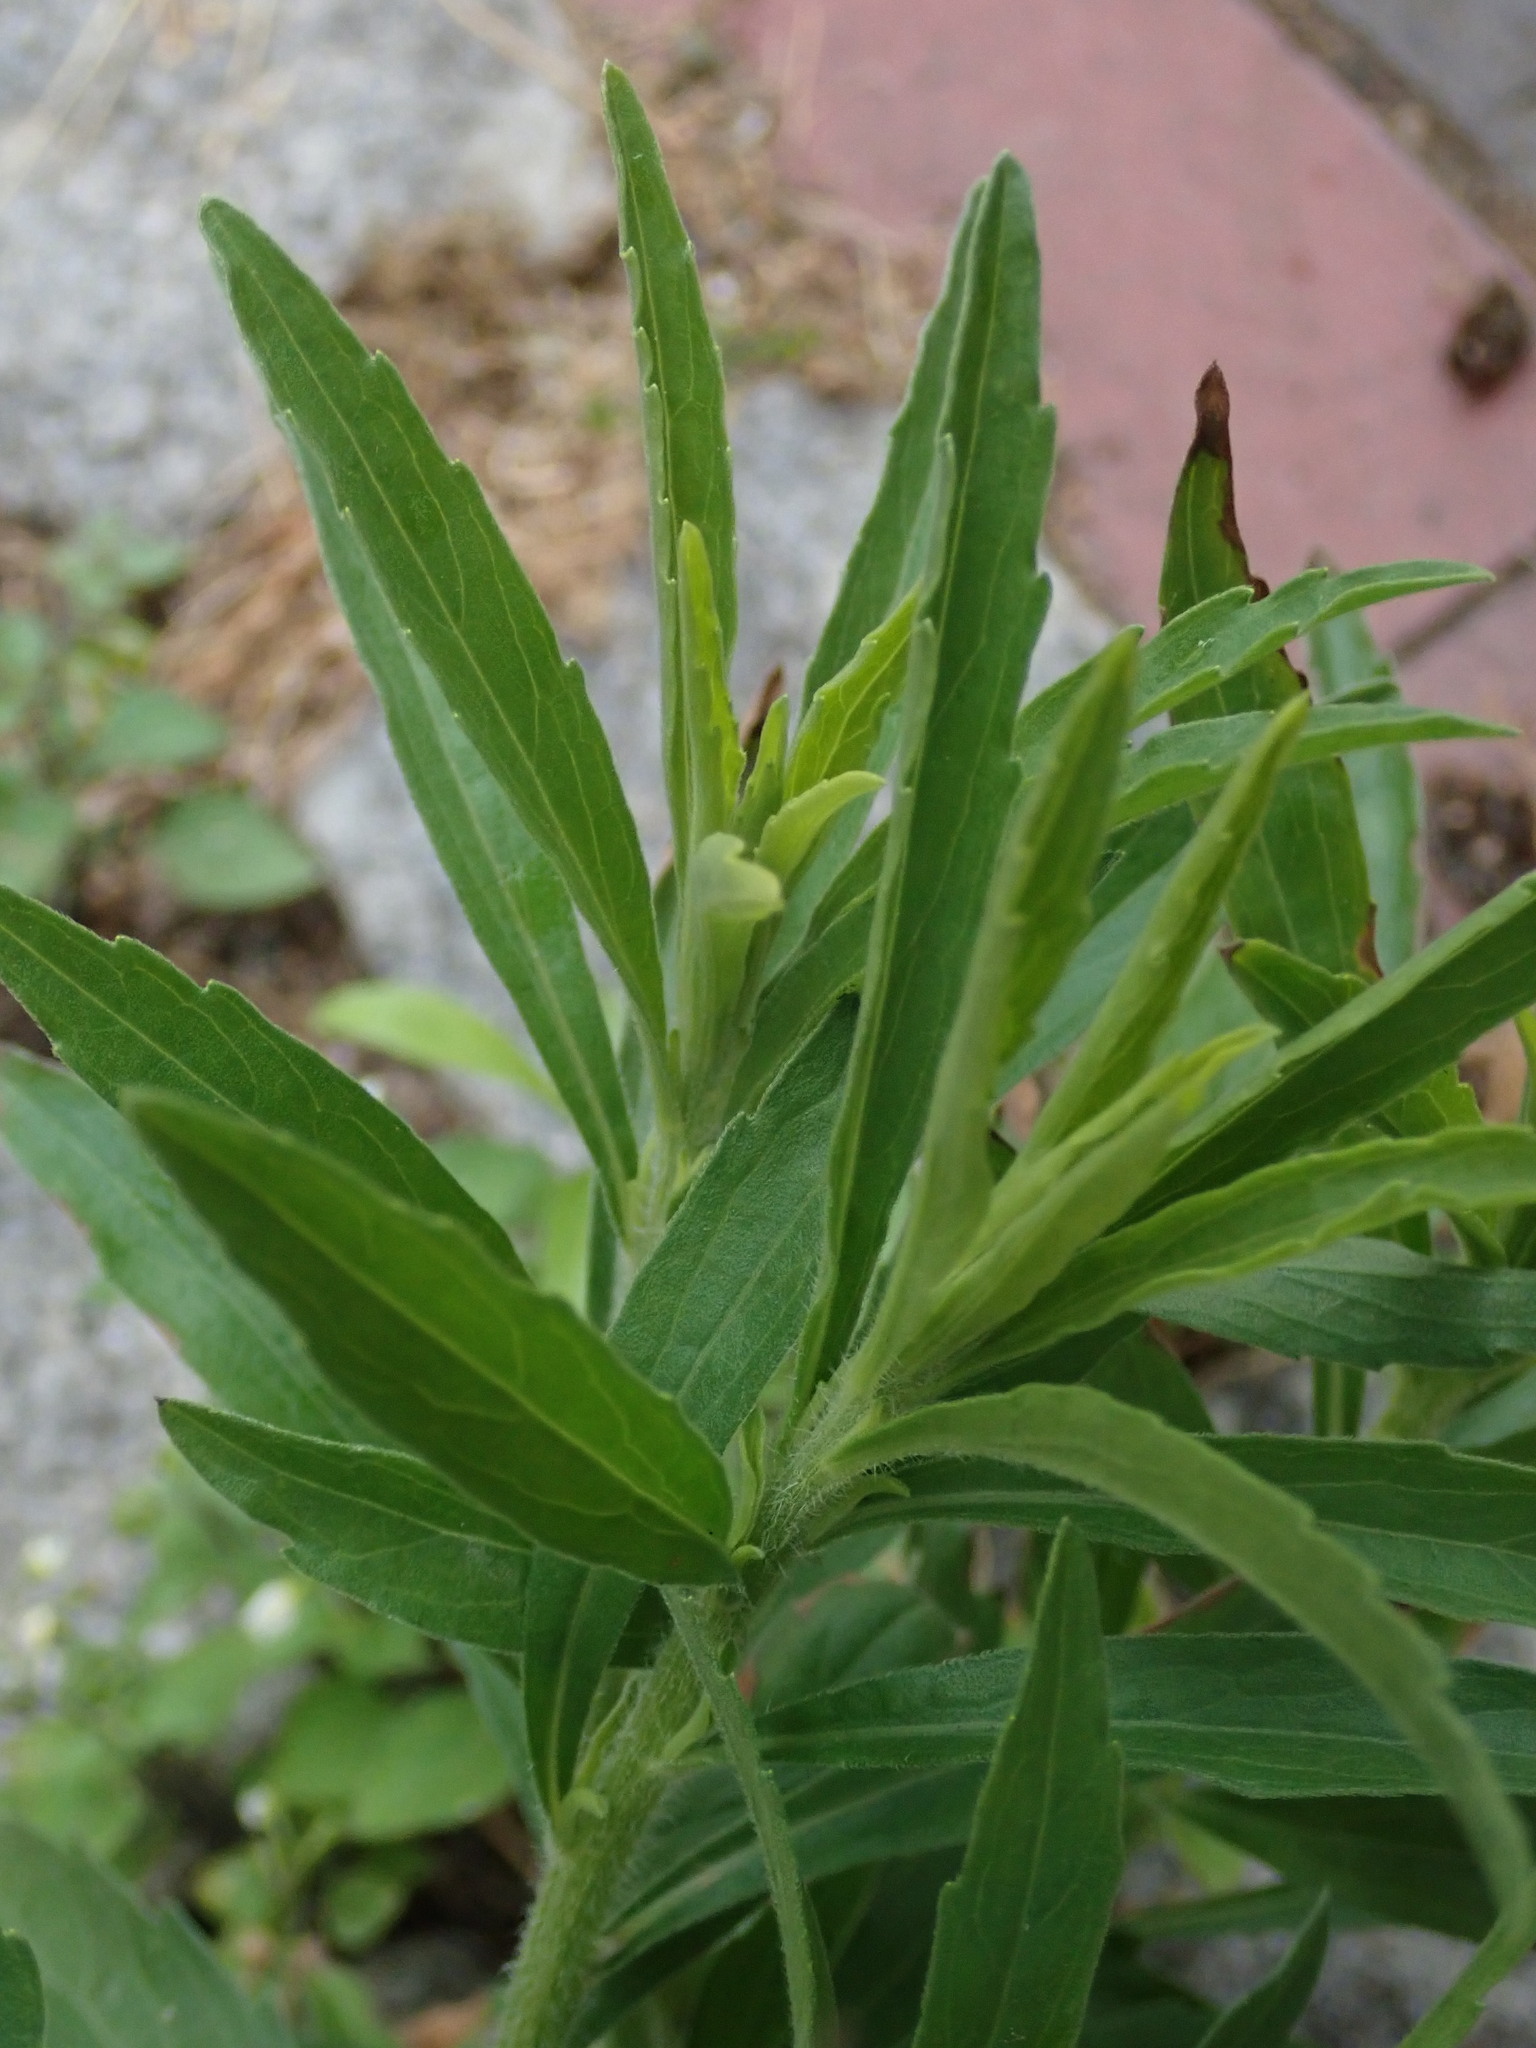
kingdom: Plantae
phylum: Tracheophyta
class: Magnoliopsida
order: Asterales
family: Asteraceae
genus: Erigeron
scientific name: Erigeron sumatrensis
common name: Daisy
